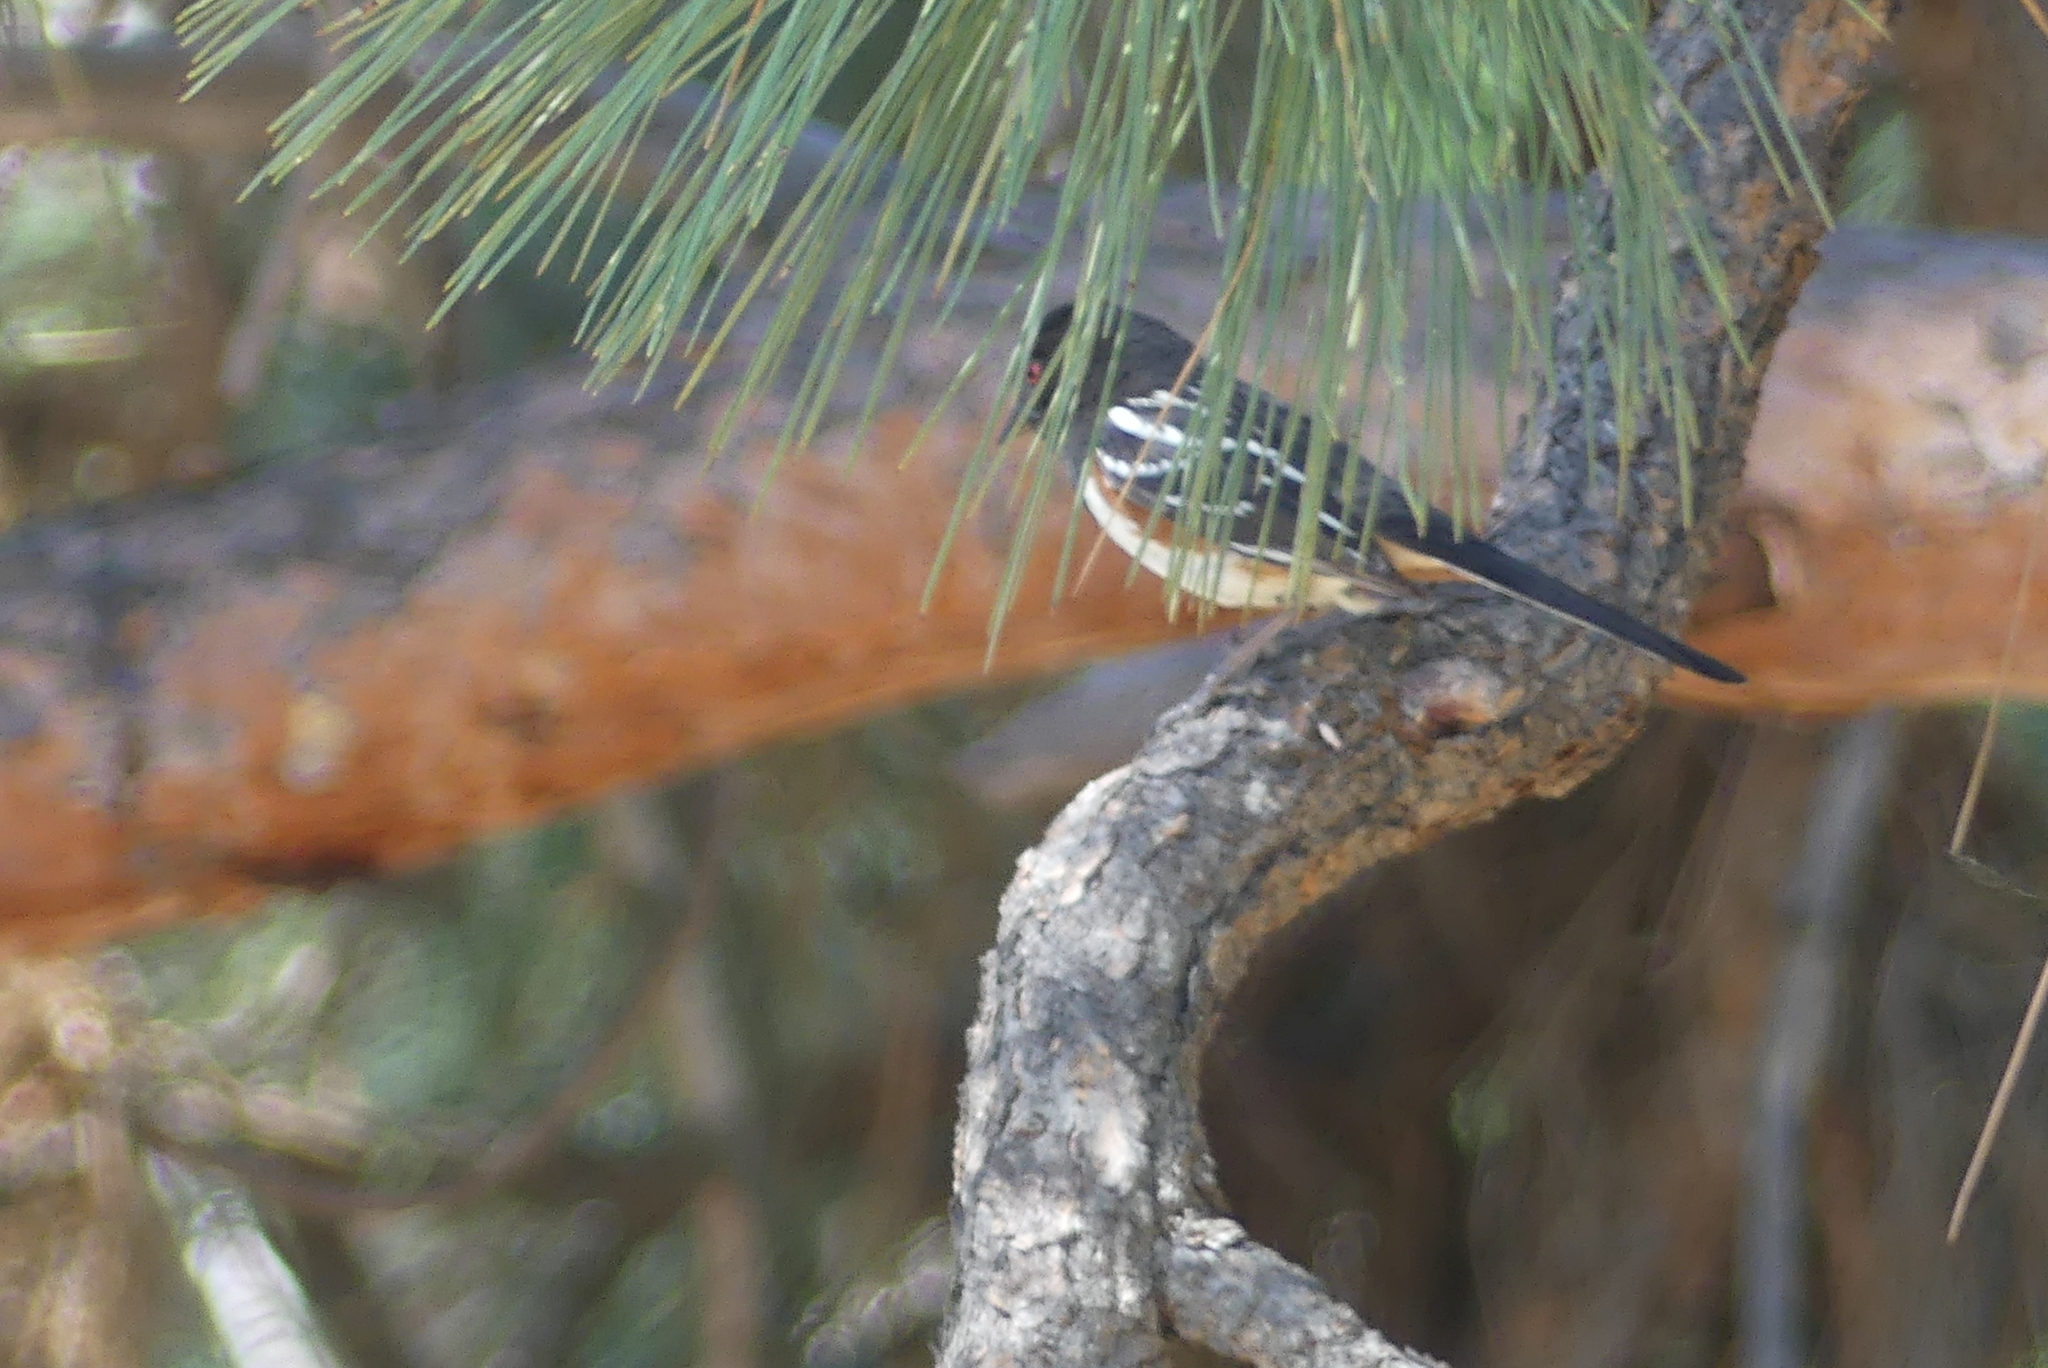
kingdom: Animalia
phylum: Chordata
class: Aves
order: Passeriformes
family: Passerellidae
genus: Pipilo
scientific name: Pipilo maculatus
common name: Spotted towhee
